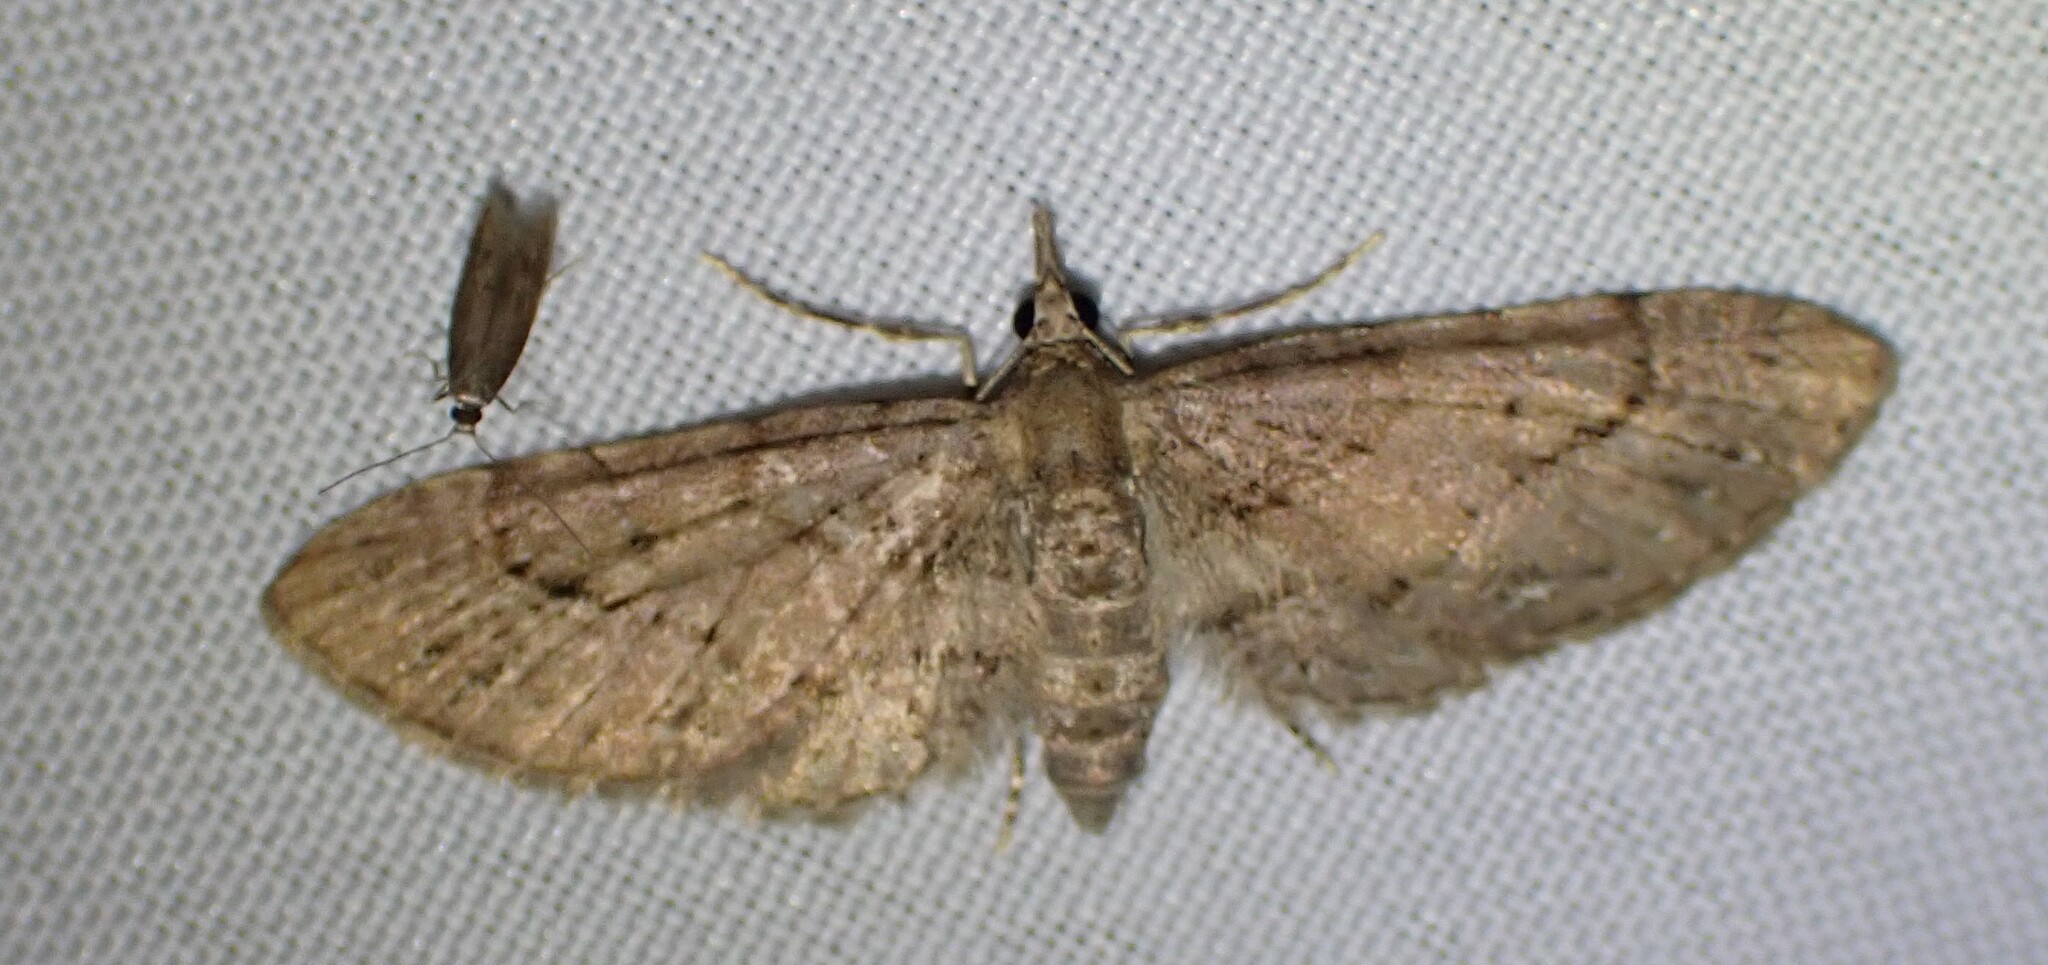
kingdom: Animalia
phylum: Arthropoda
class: Insecta
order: Lepidoptera
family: Geometridae
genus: Eupithecia
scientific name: Eupithecia unicolor
